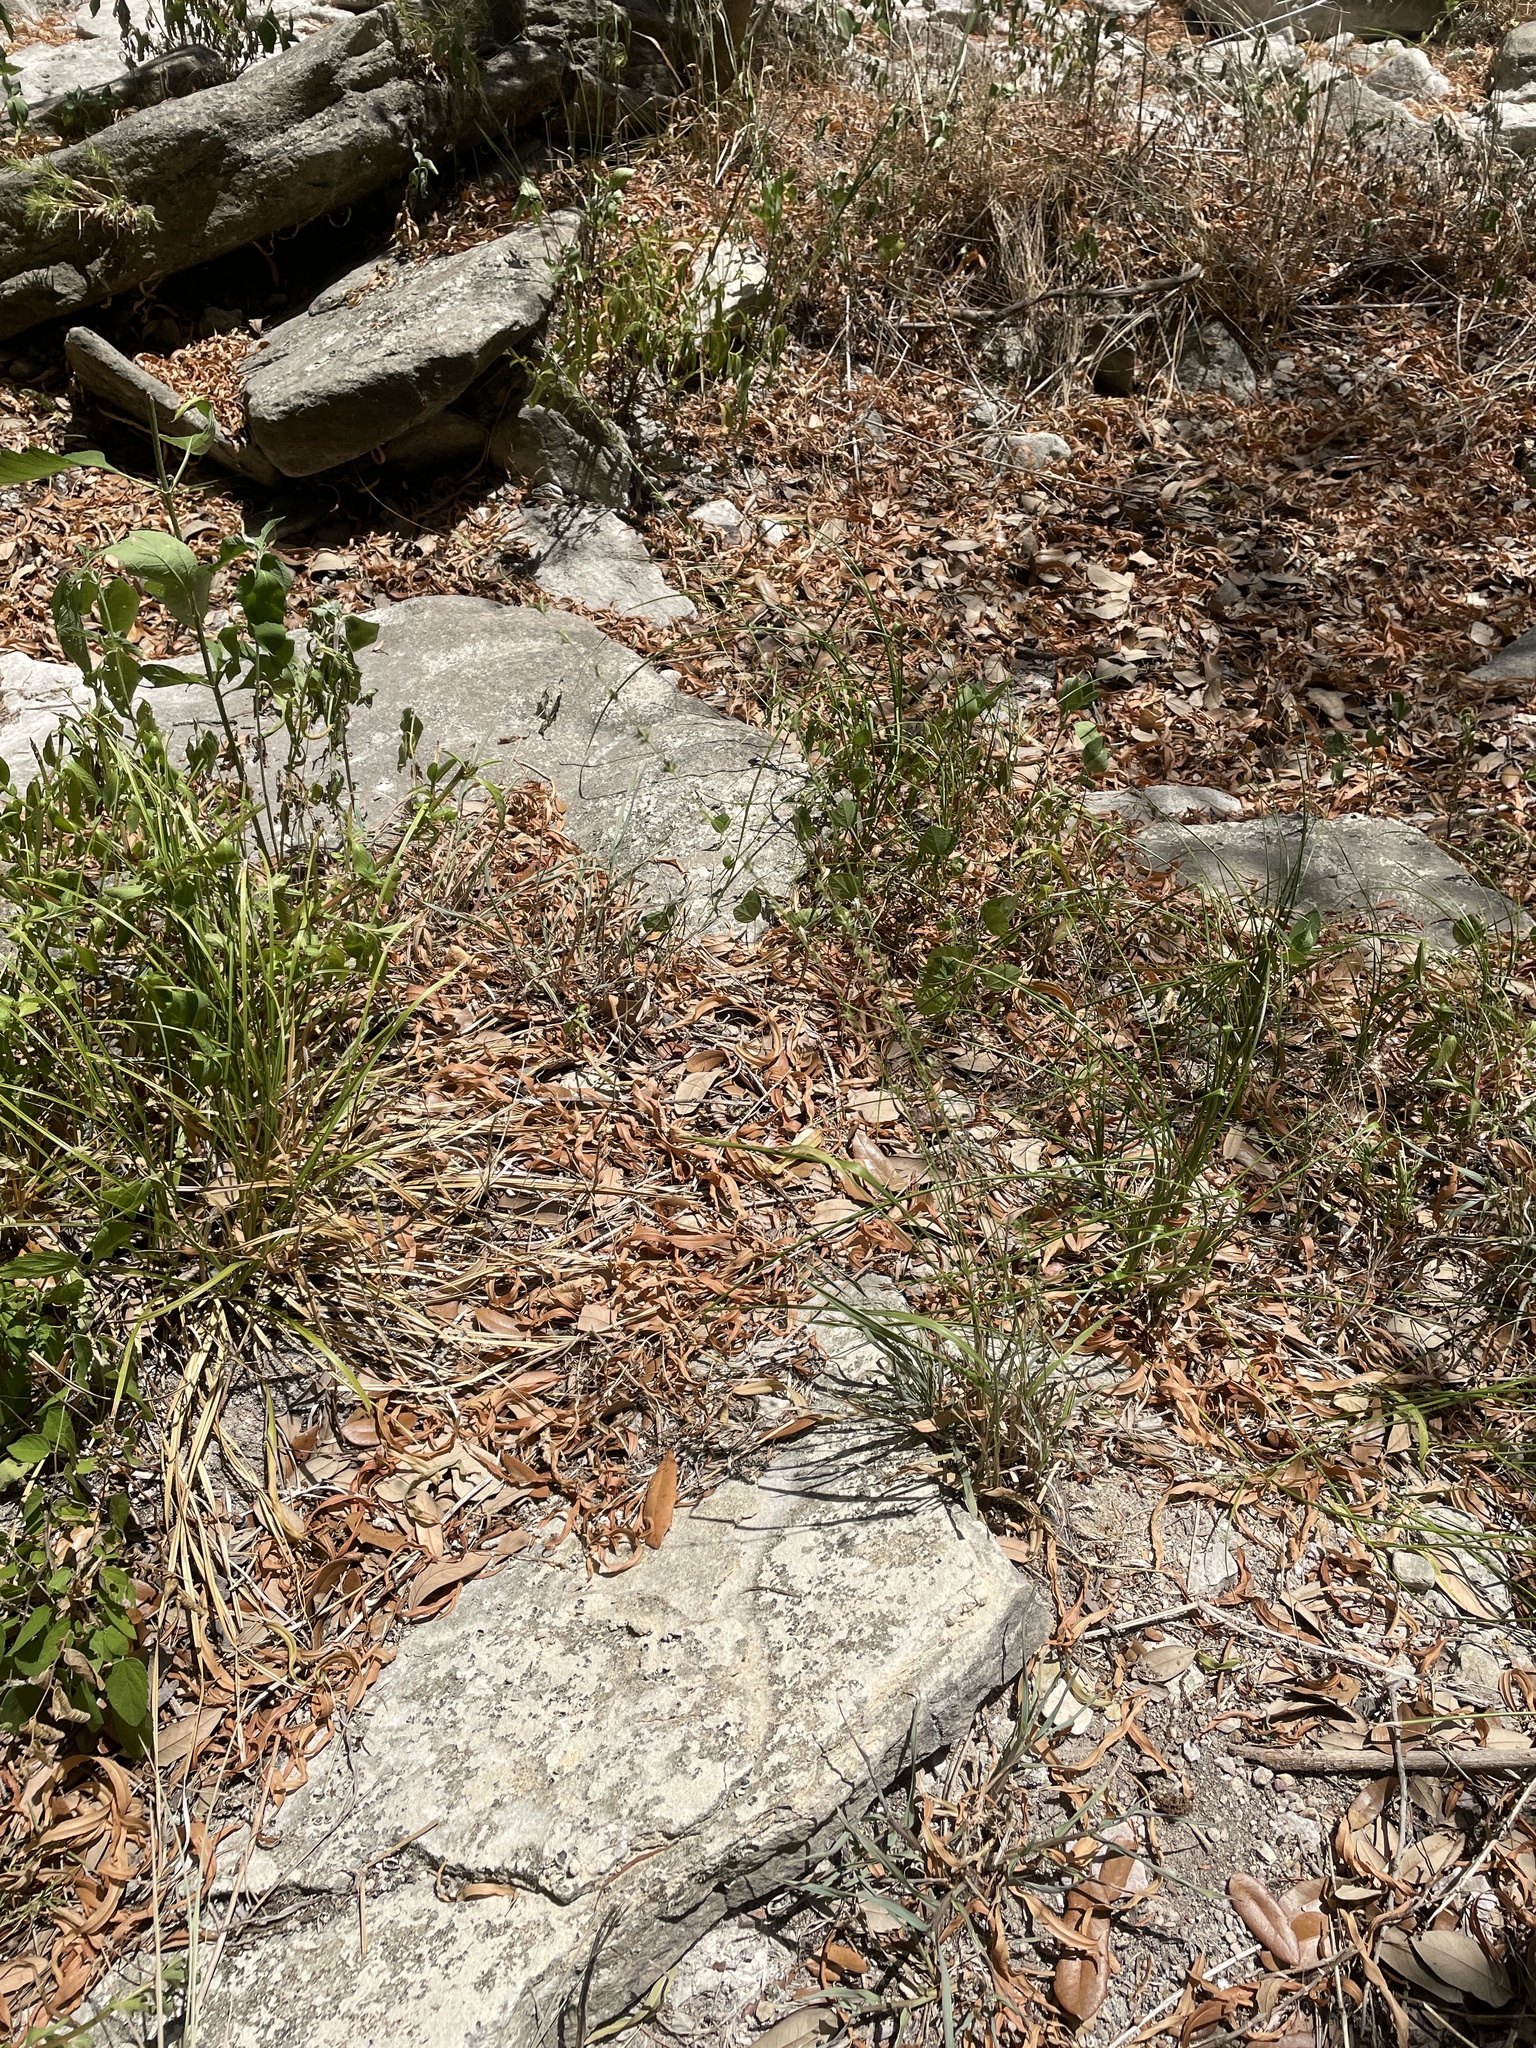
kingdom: Plantae
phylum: Tracheophyta
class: Liliopsida
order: Poales
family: Poaceae
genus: Chasmanthium
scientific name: Chasmanthium laxum
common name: Slender chasmanthium
